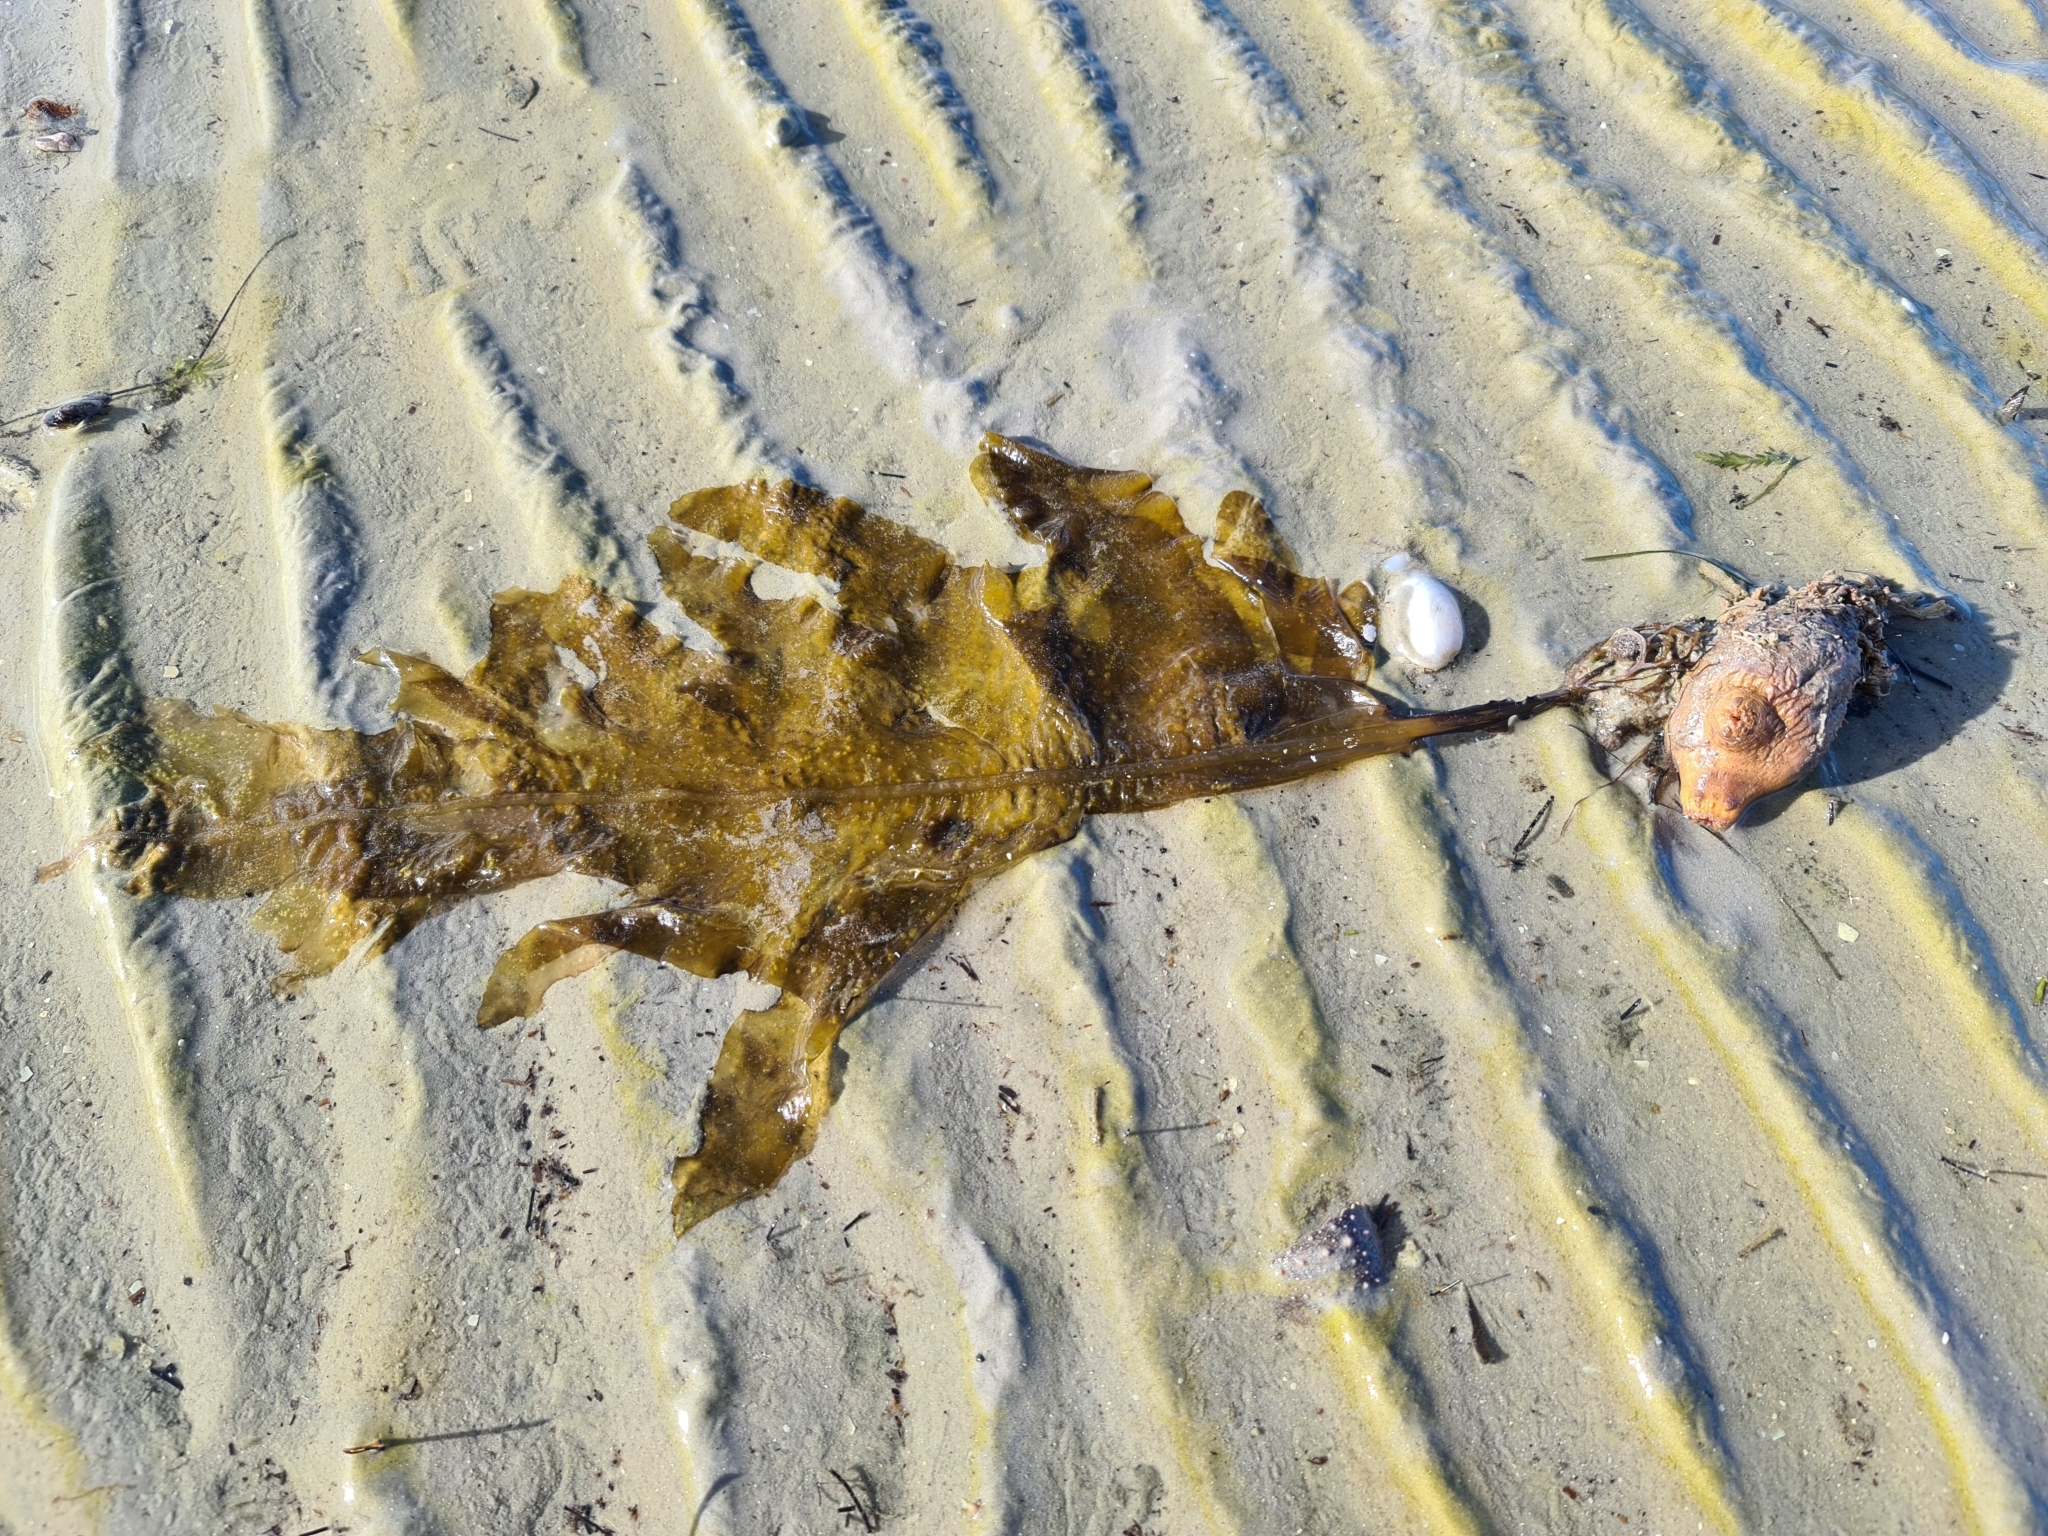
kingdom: Chromista
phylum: Ochrophyta
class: Phaeophyceae
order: Laminariales
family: Alariaceae
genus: Undaria
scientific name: Undaria pinnatifida
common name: Asian kelp
